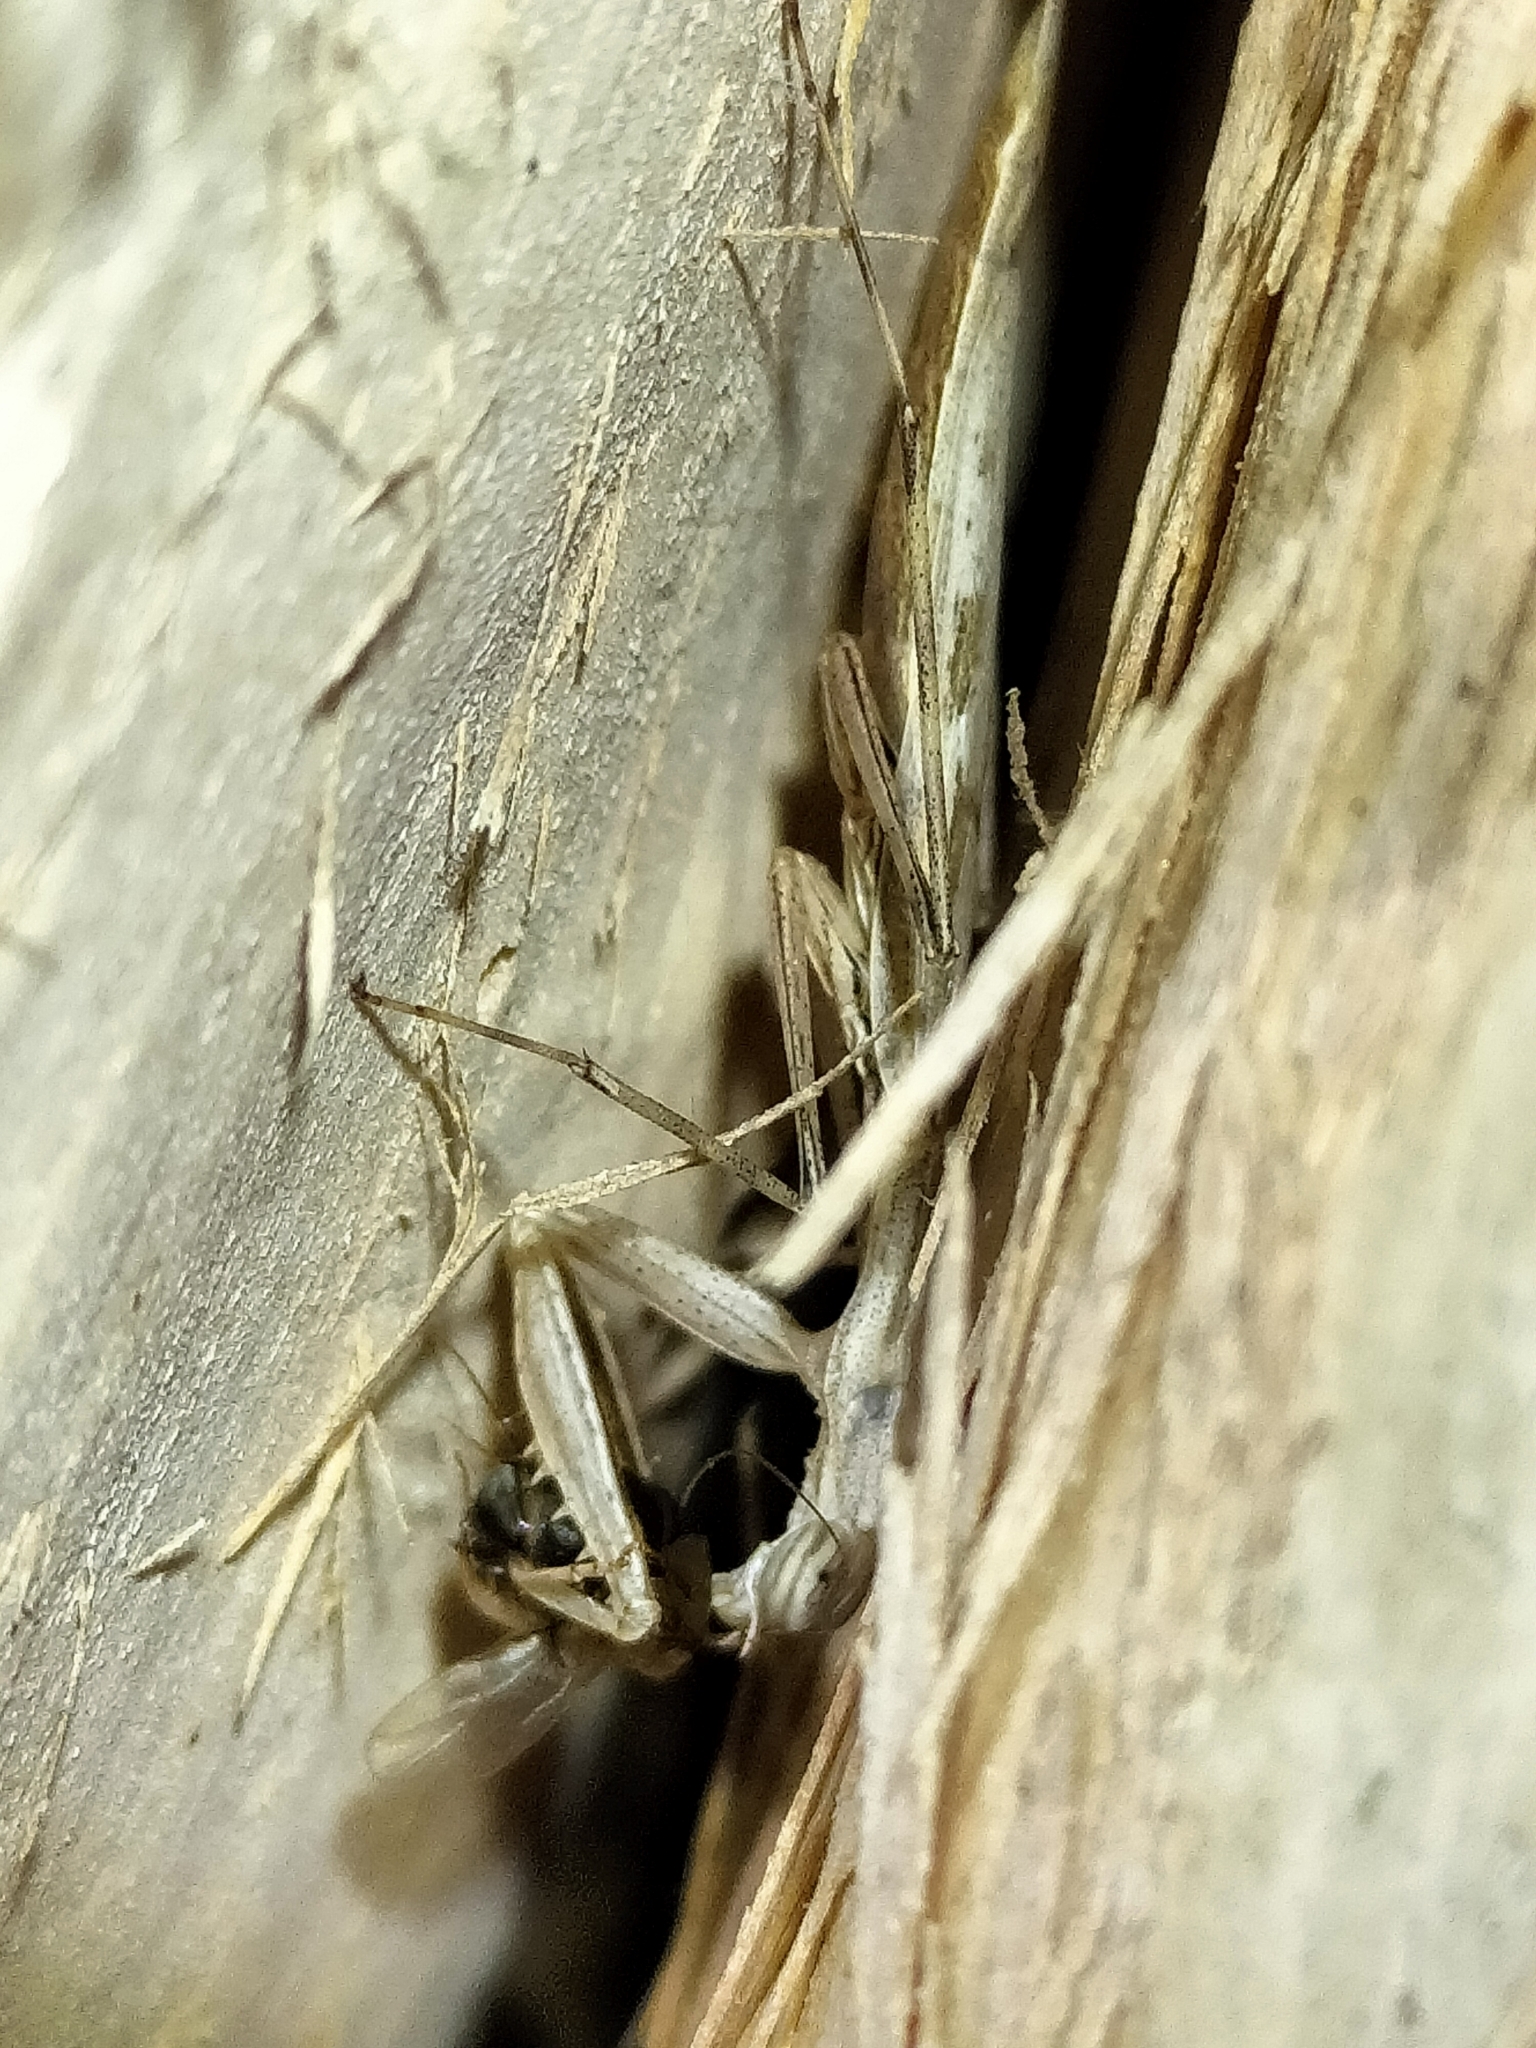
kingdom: Animalia
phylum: Arthropoda
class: Insecta
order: Mantodea
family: Nanomantidae
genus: Ima
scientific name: Ima fusca
